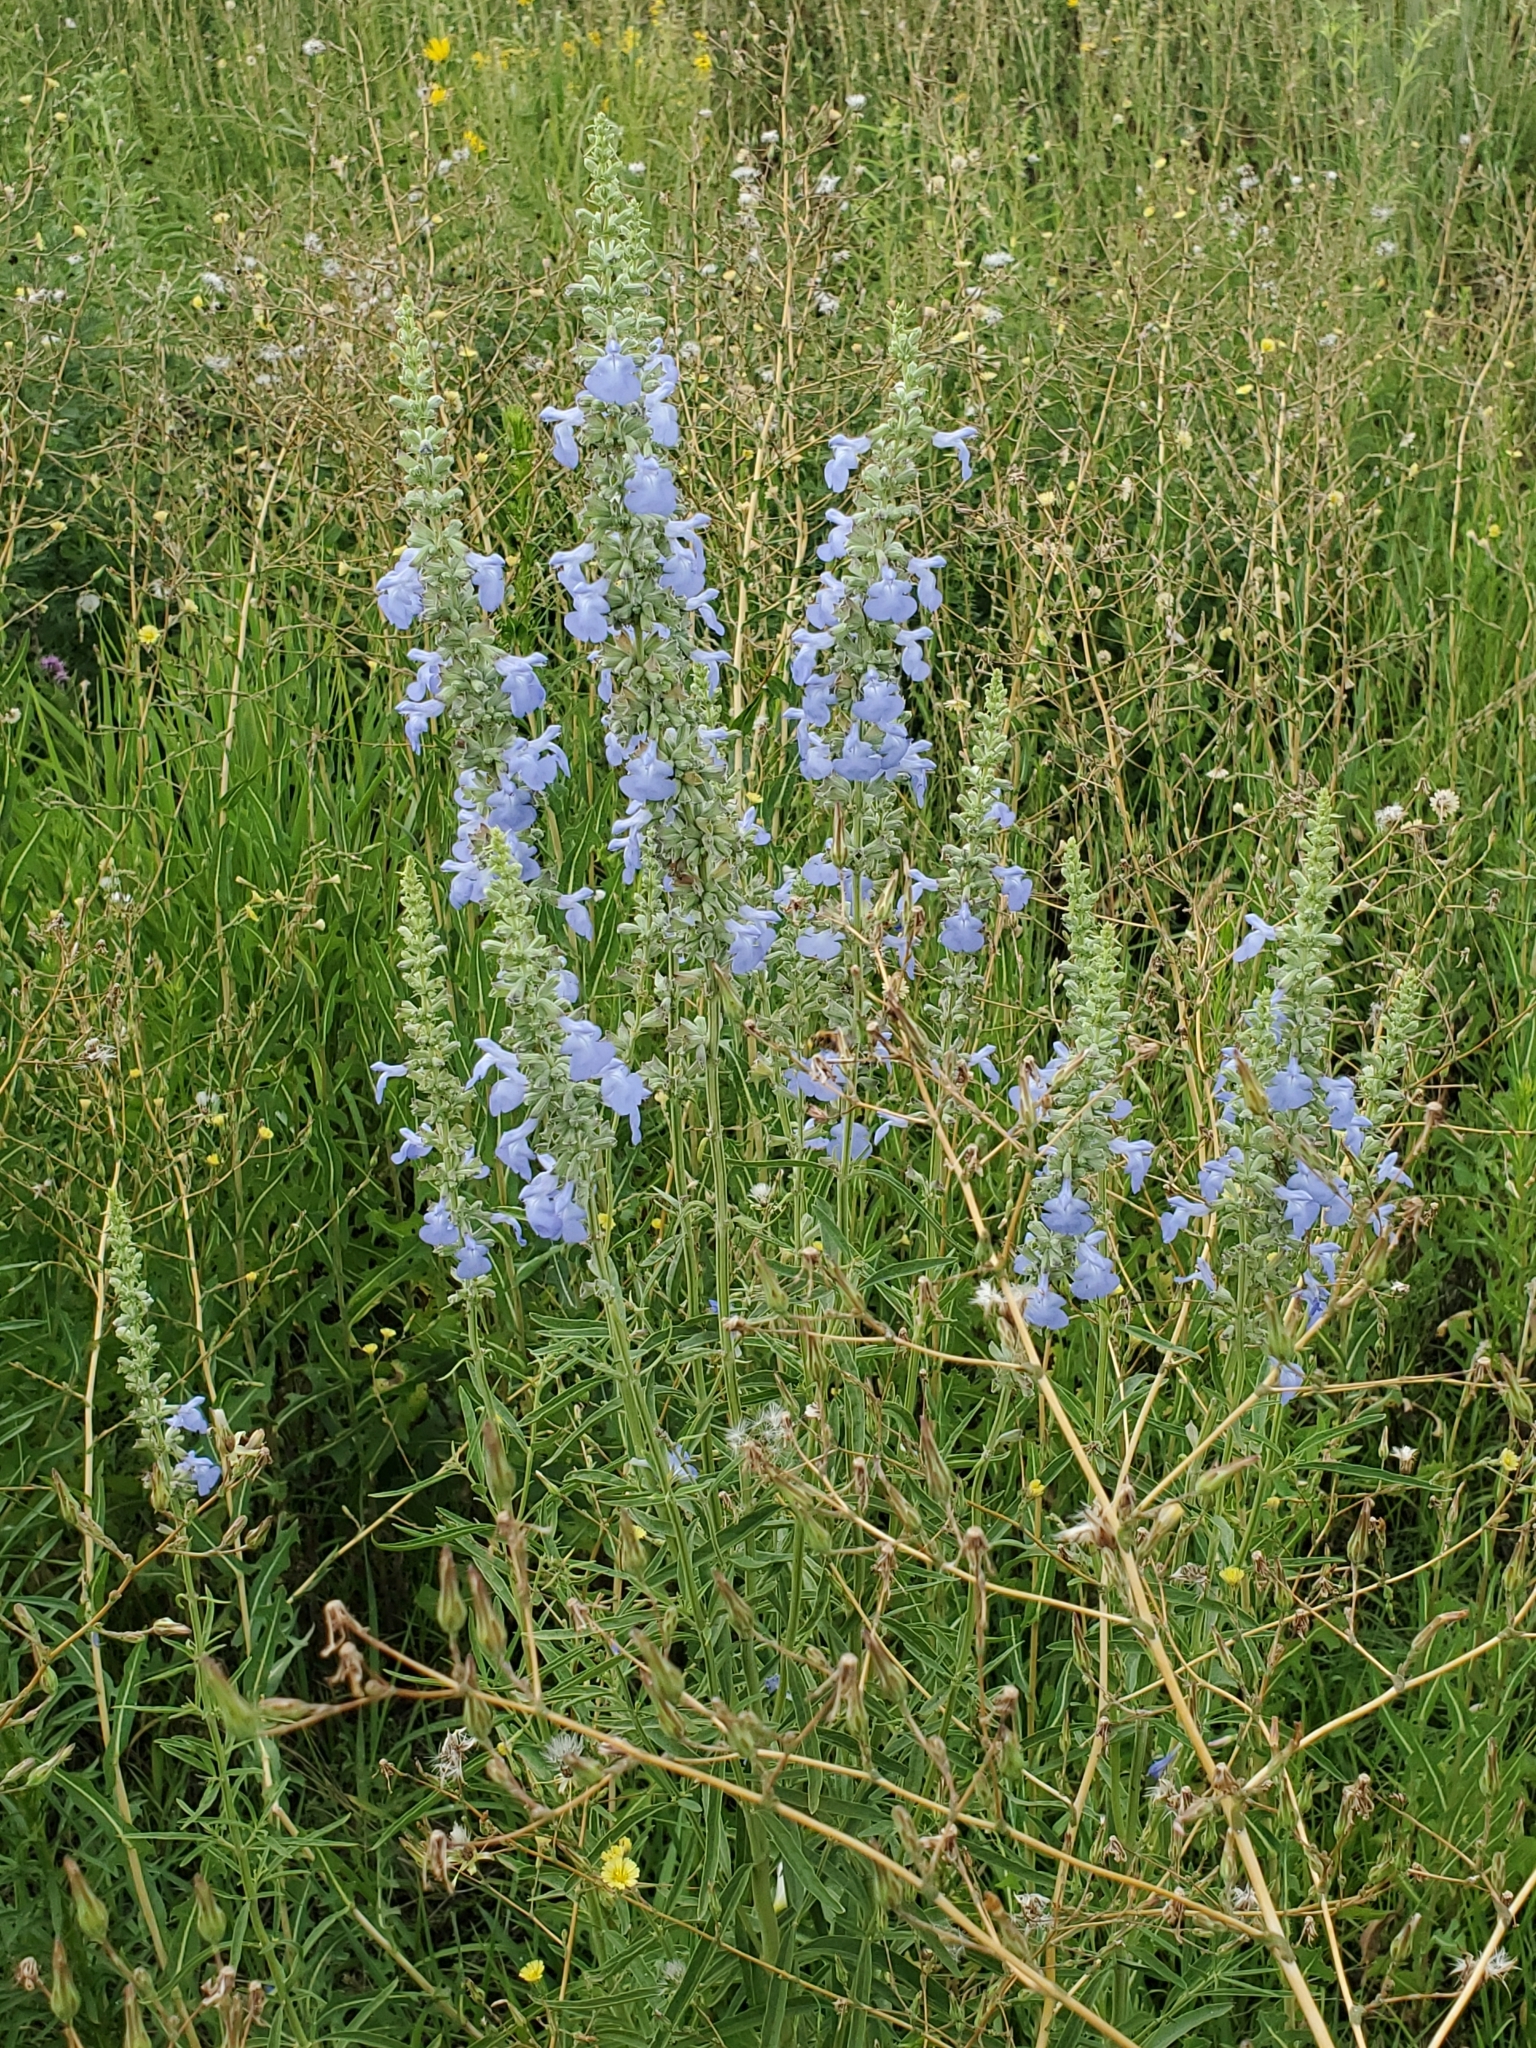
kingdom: Plantae
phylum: Tracheophyta
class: Magnoliopsida
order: Lamiales
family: Lamiaceae
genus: Salvia
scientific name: Salvia azurea
